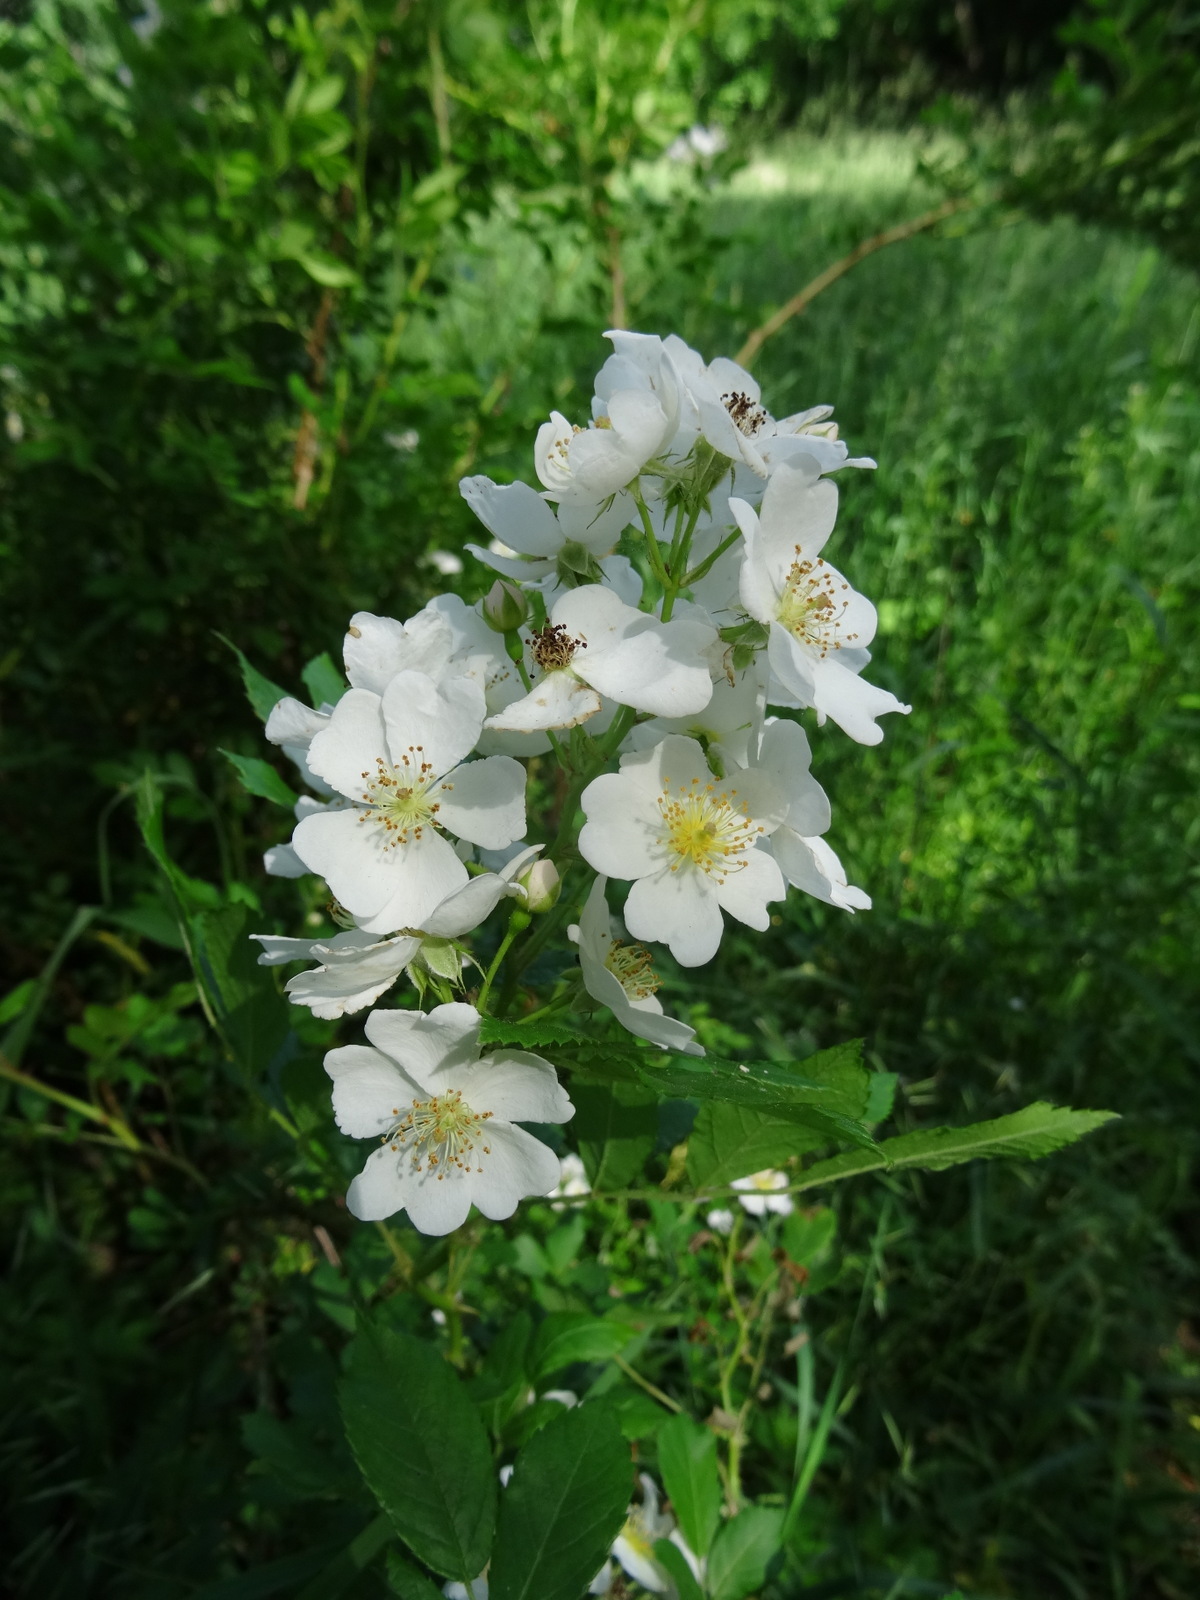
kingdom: Plantae
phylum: Tracheophyta
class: Magnoliopsida
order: Rosales
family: Rosaceae
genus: Rosa
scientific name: Rosa multiflora
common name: Multiflora rose
